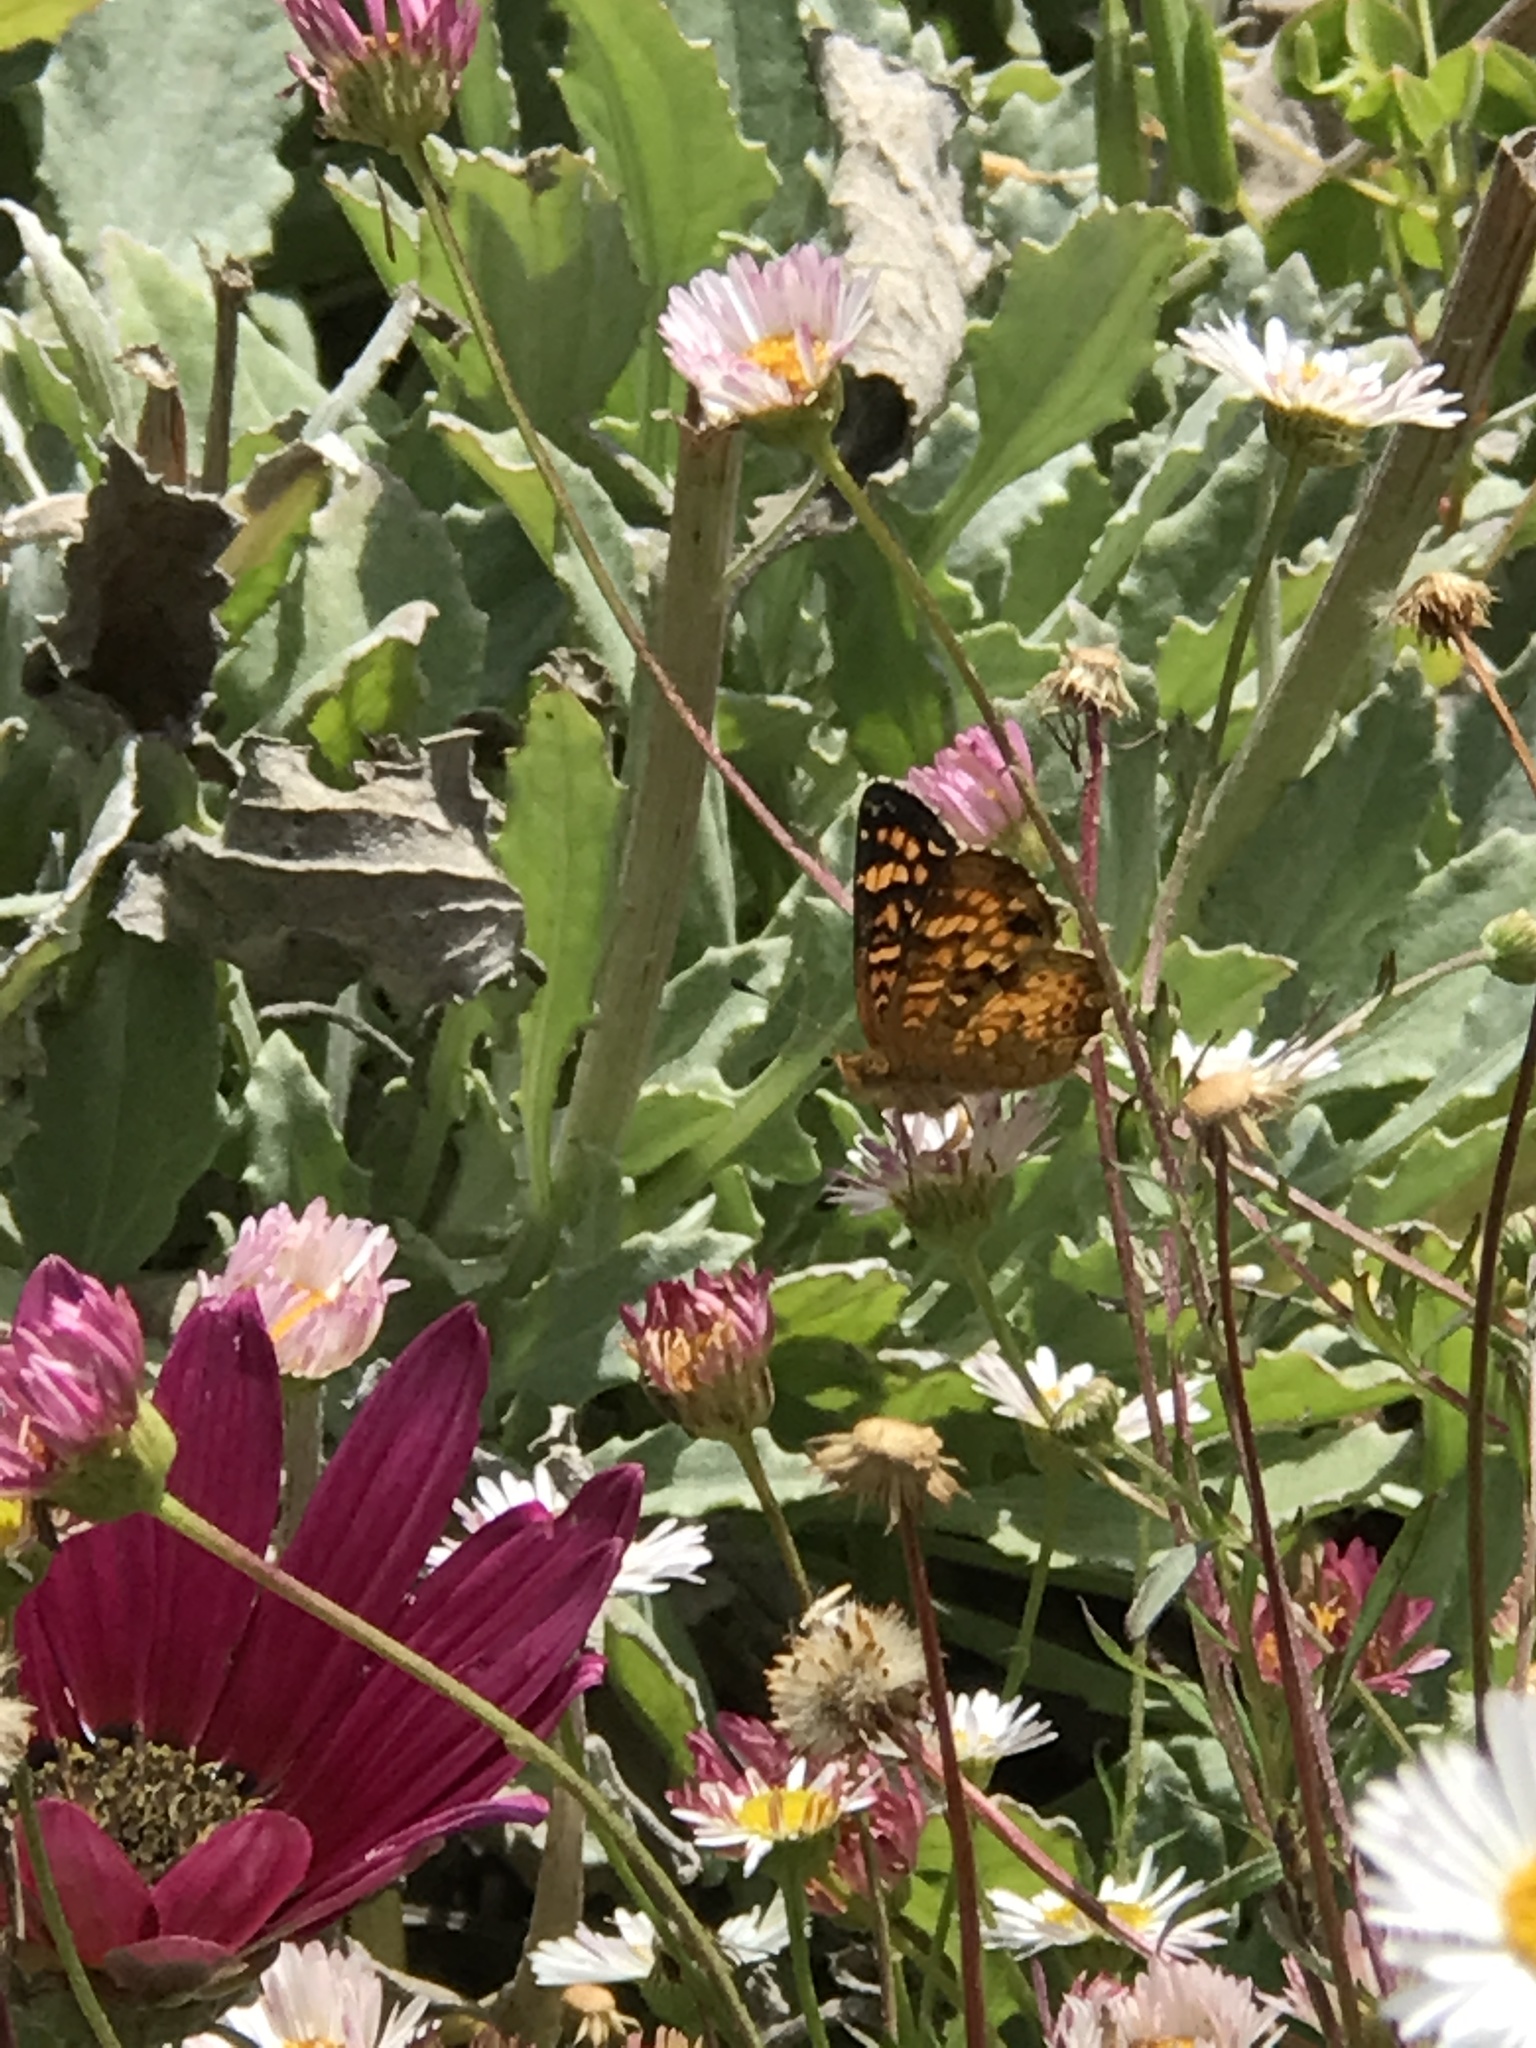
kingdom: Animalia
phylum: Arthropoda
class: Insecta
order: Lepidoptera
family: Nymphalidae
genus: Phyciodes
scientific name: Phyciodes tharos
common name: Pearl crescent
